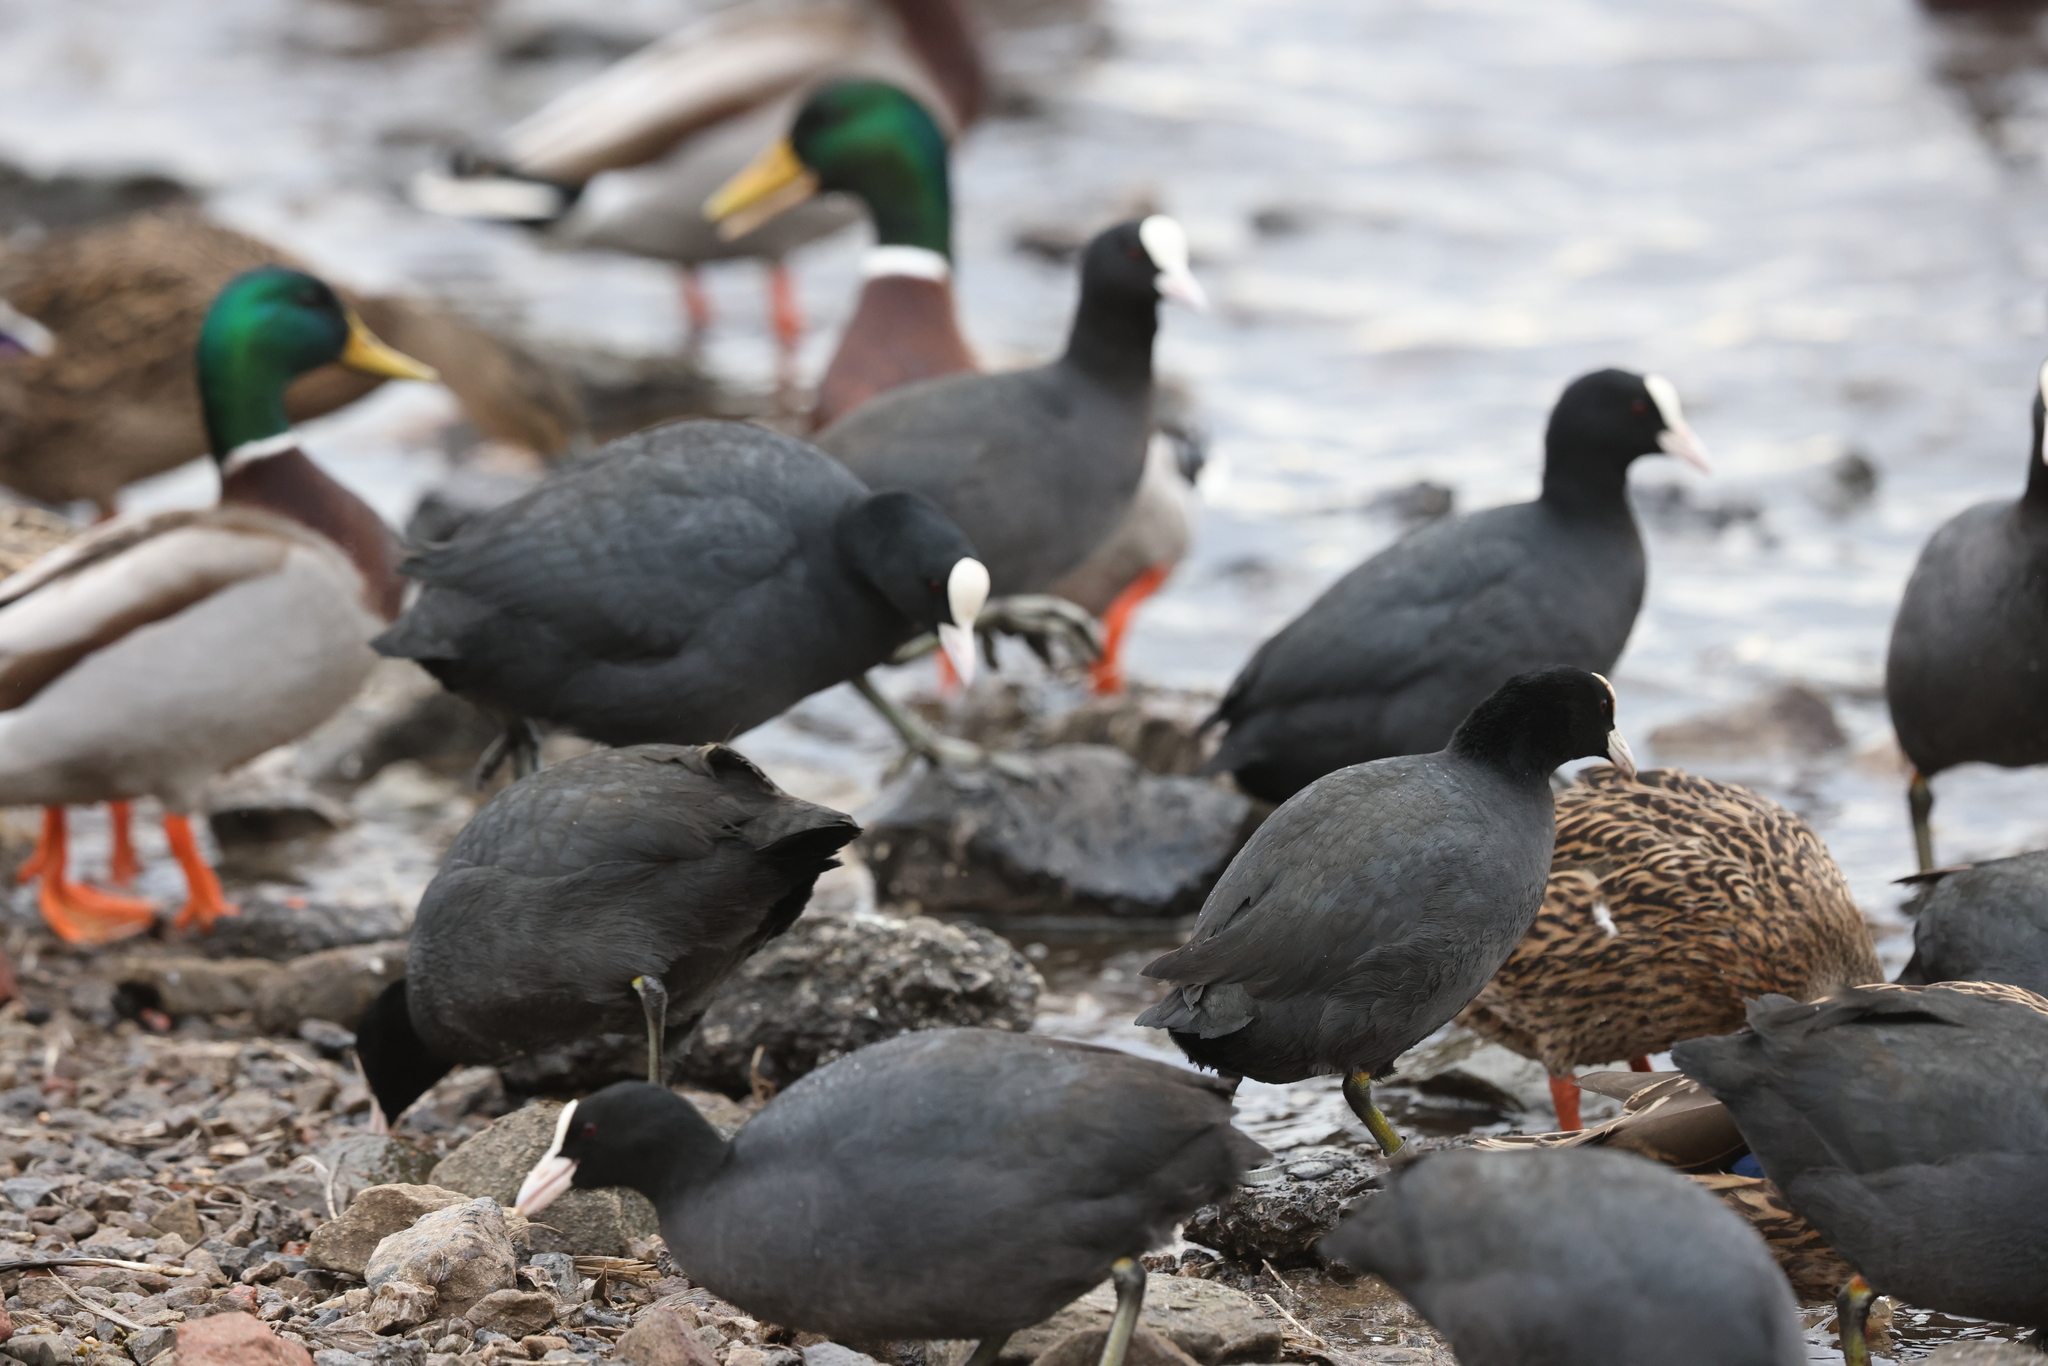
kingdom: Animalia
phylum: Chordata
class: Aves
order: Gruiformes
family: Rallidae
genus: Fulica
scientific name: Fulica atra
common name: Eurasian coot
